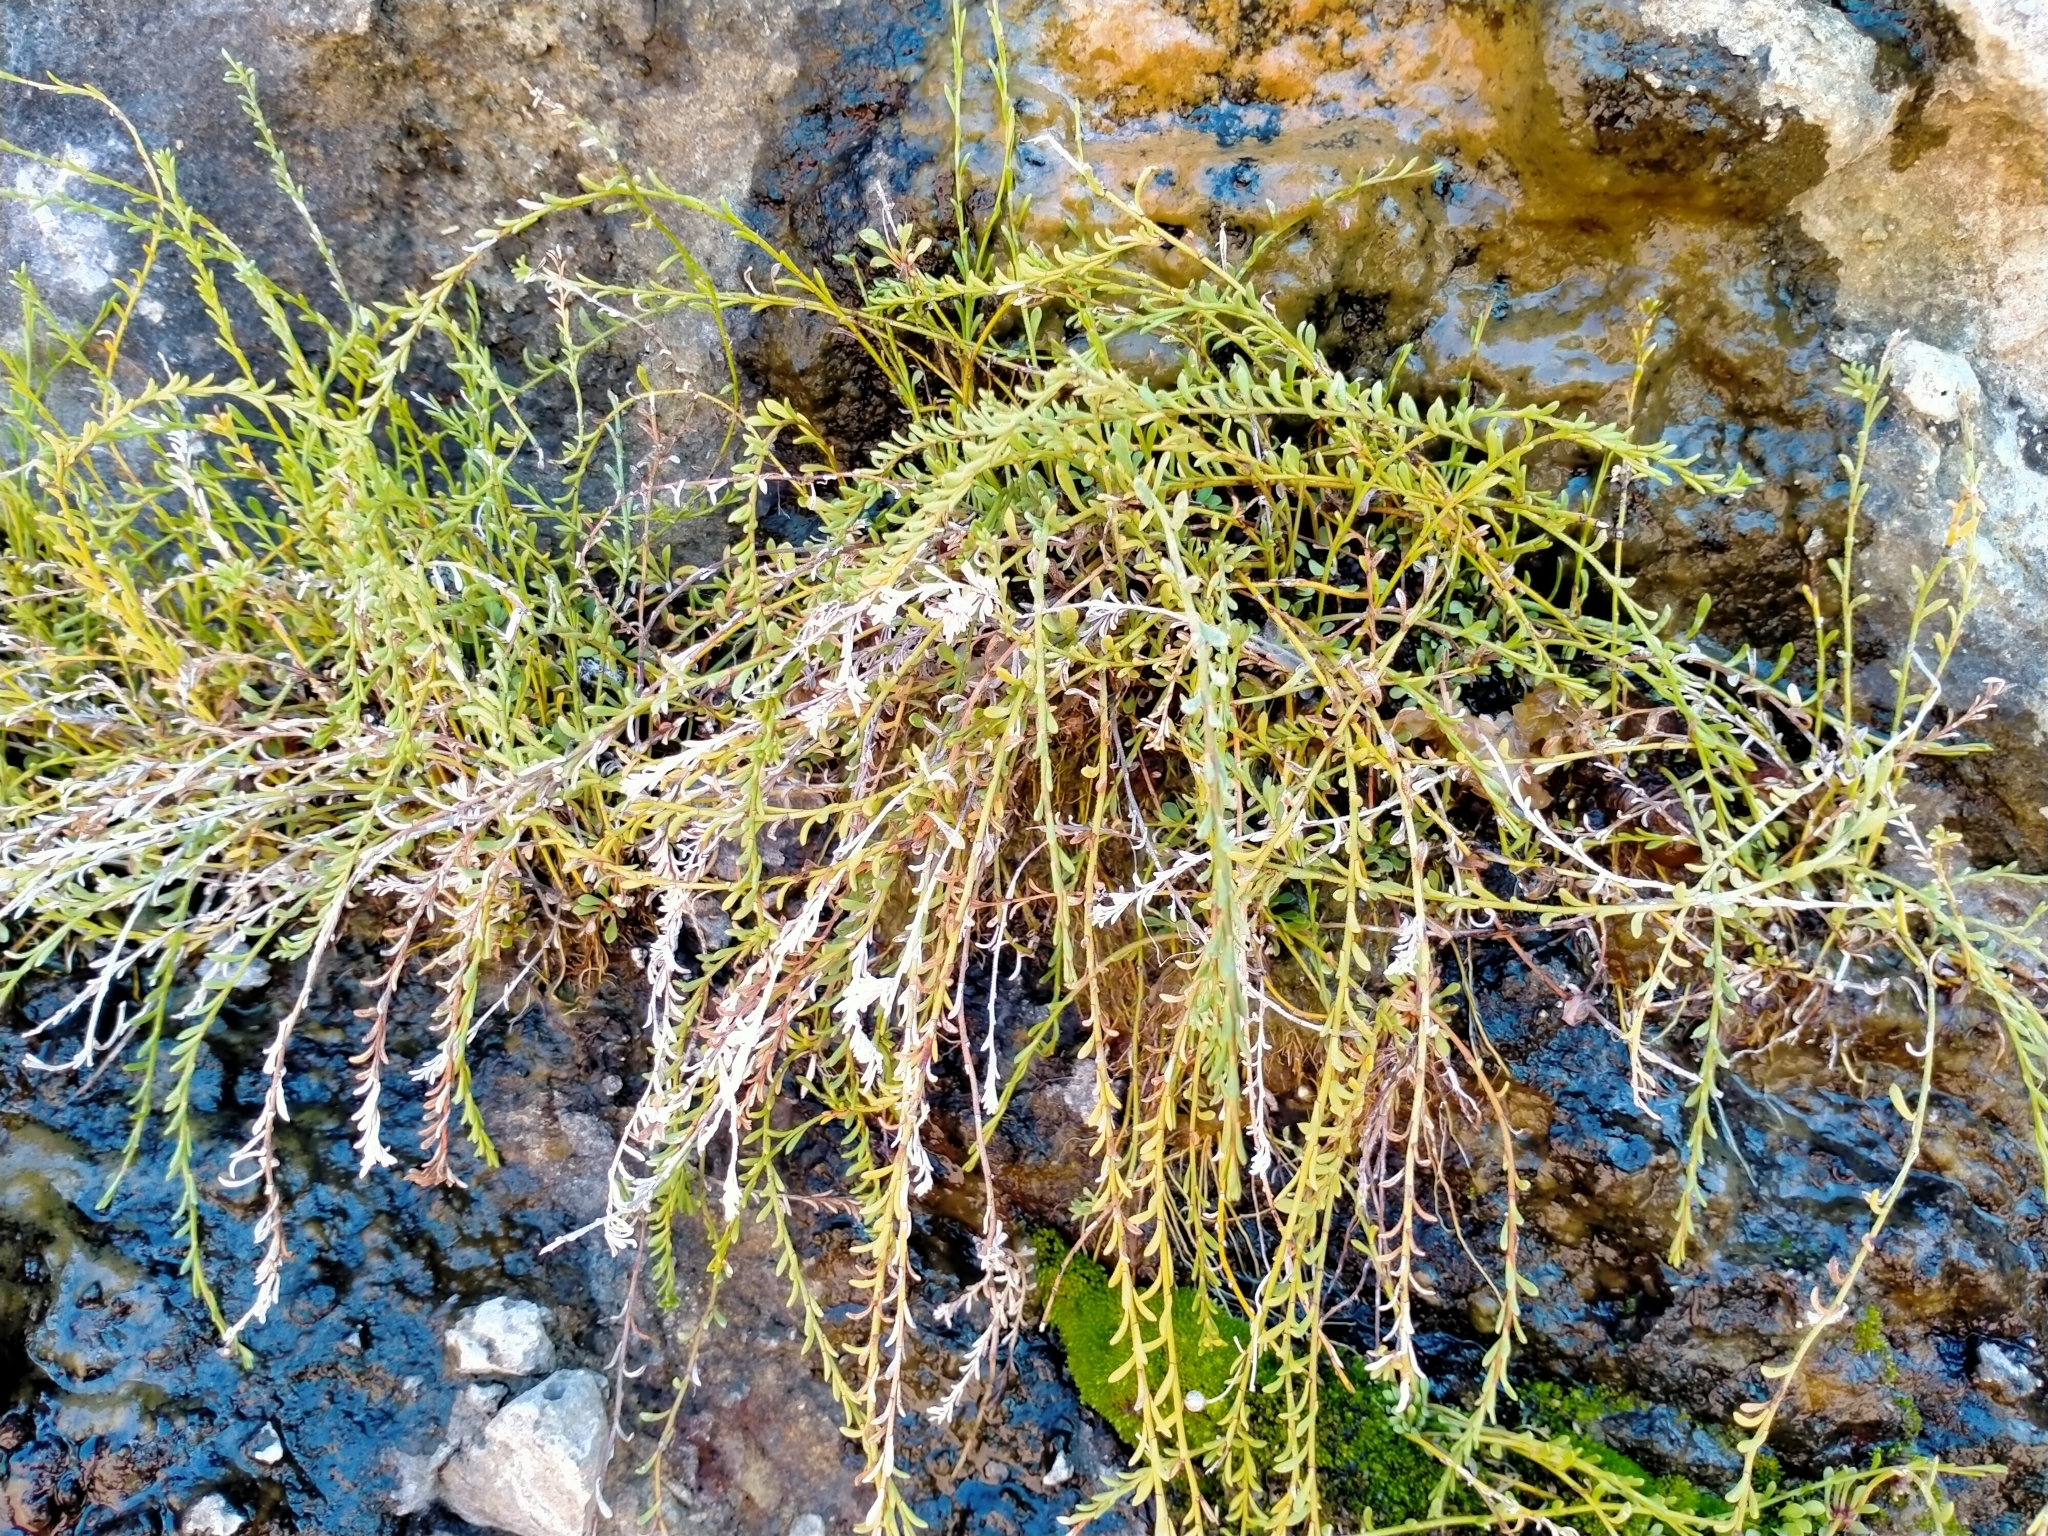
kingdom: Plantae
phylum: Tracheophyta
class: Magnoliopsida
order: Ericales
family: Primulaceae
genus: Samolus
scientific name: Samolus repens
